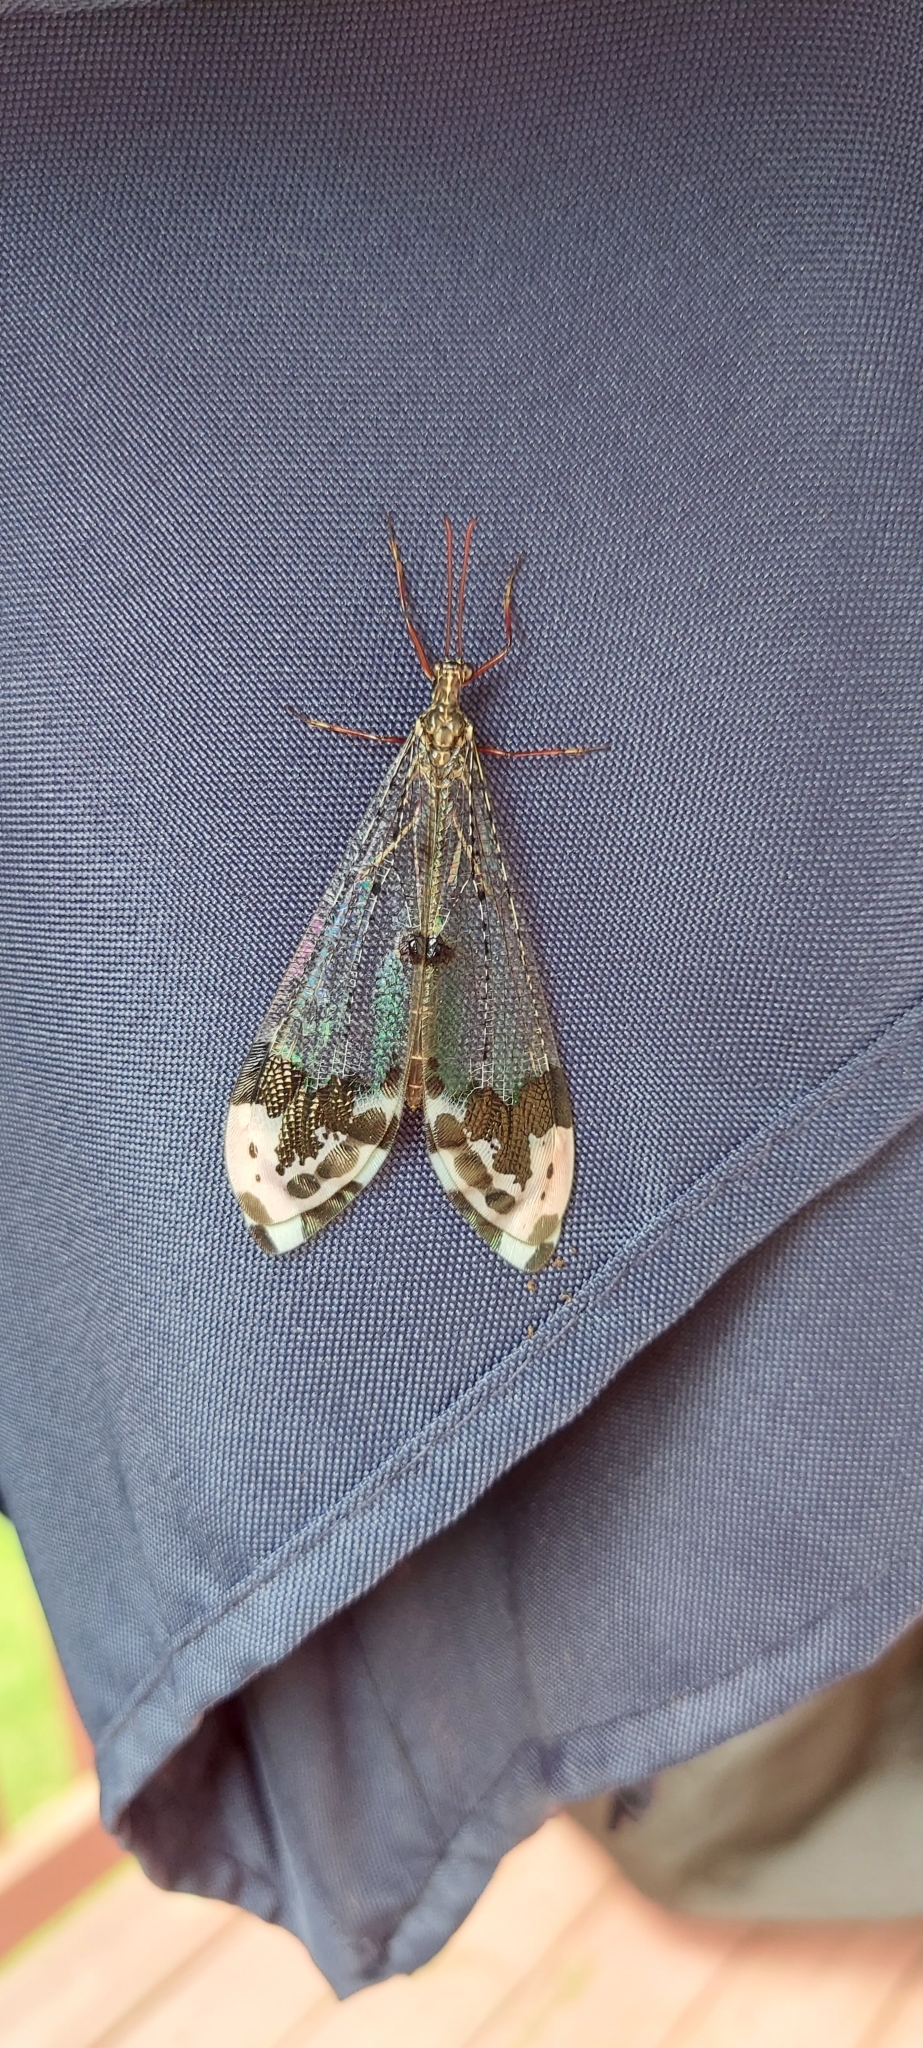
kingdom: Animalia
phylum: Arthropoda
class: Insecta
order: Neuroptera
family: Myrmeleontidae
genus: Glenurus
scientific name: Glenurus gratus
